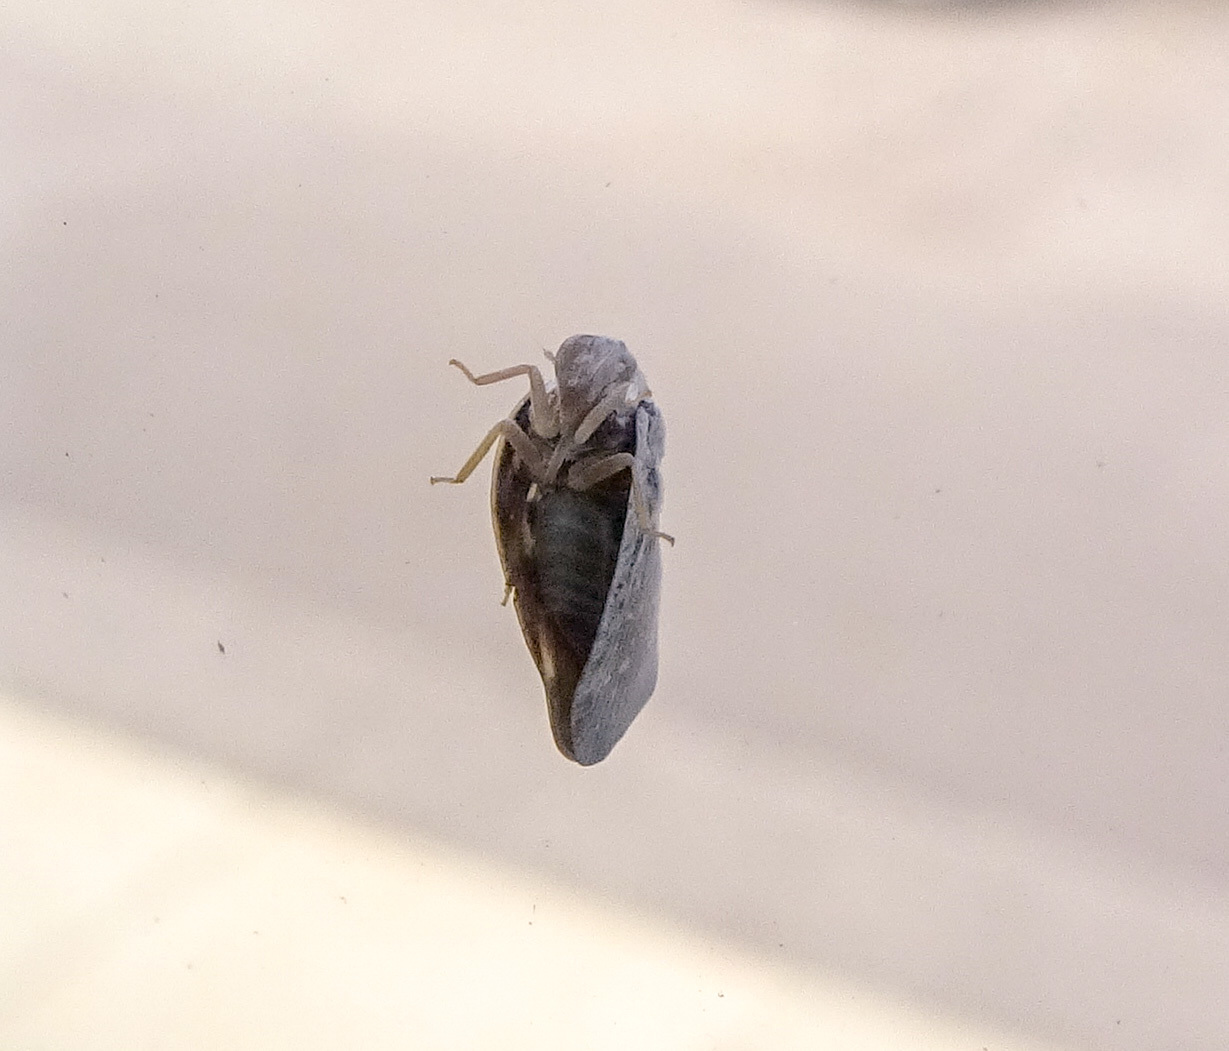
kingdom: Animalia
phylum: Arthropoda
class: Insecta
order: Hemiptera
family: Flatidae
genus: Metcalfa
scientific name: Metcalfa pruinosa
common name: Citrus flatid planthopper
